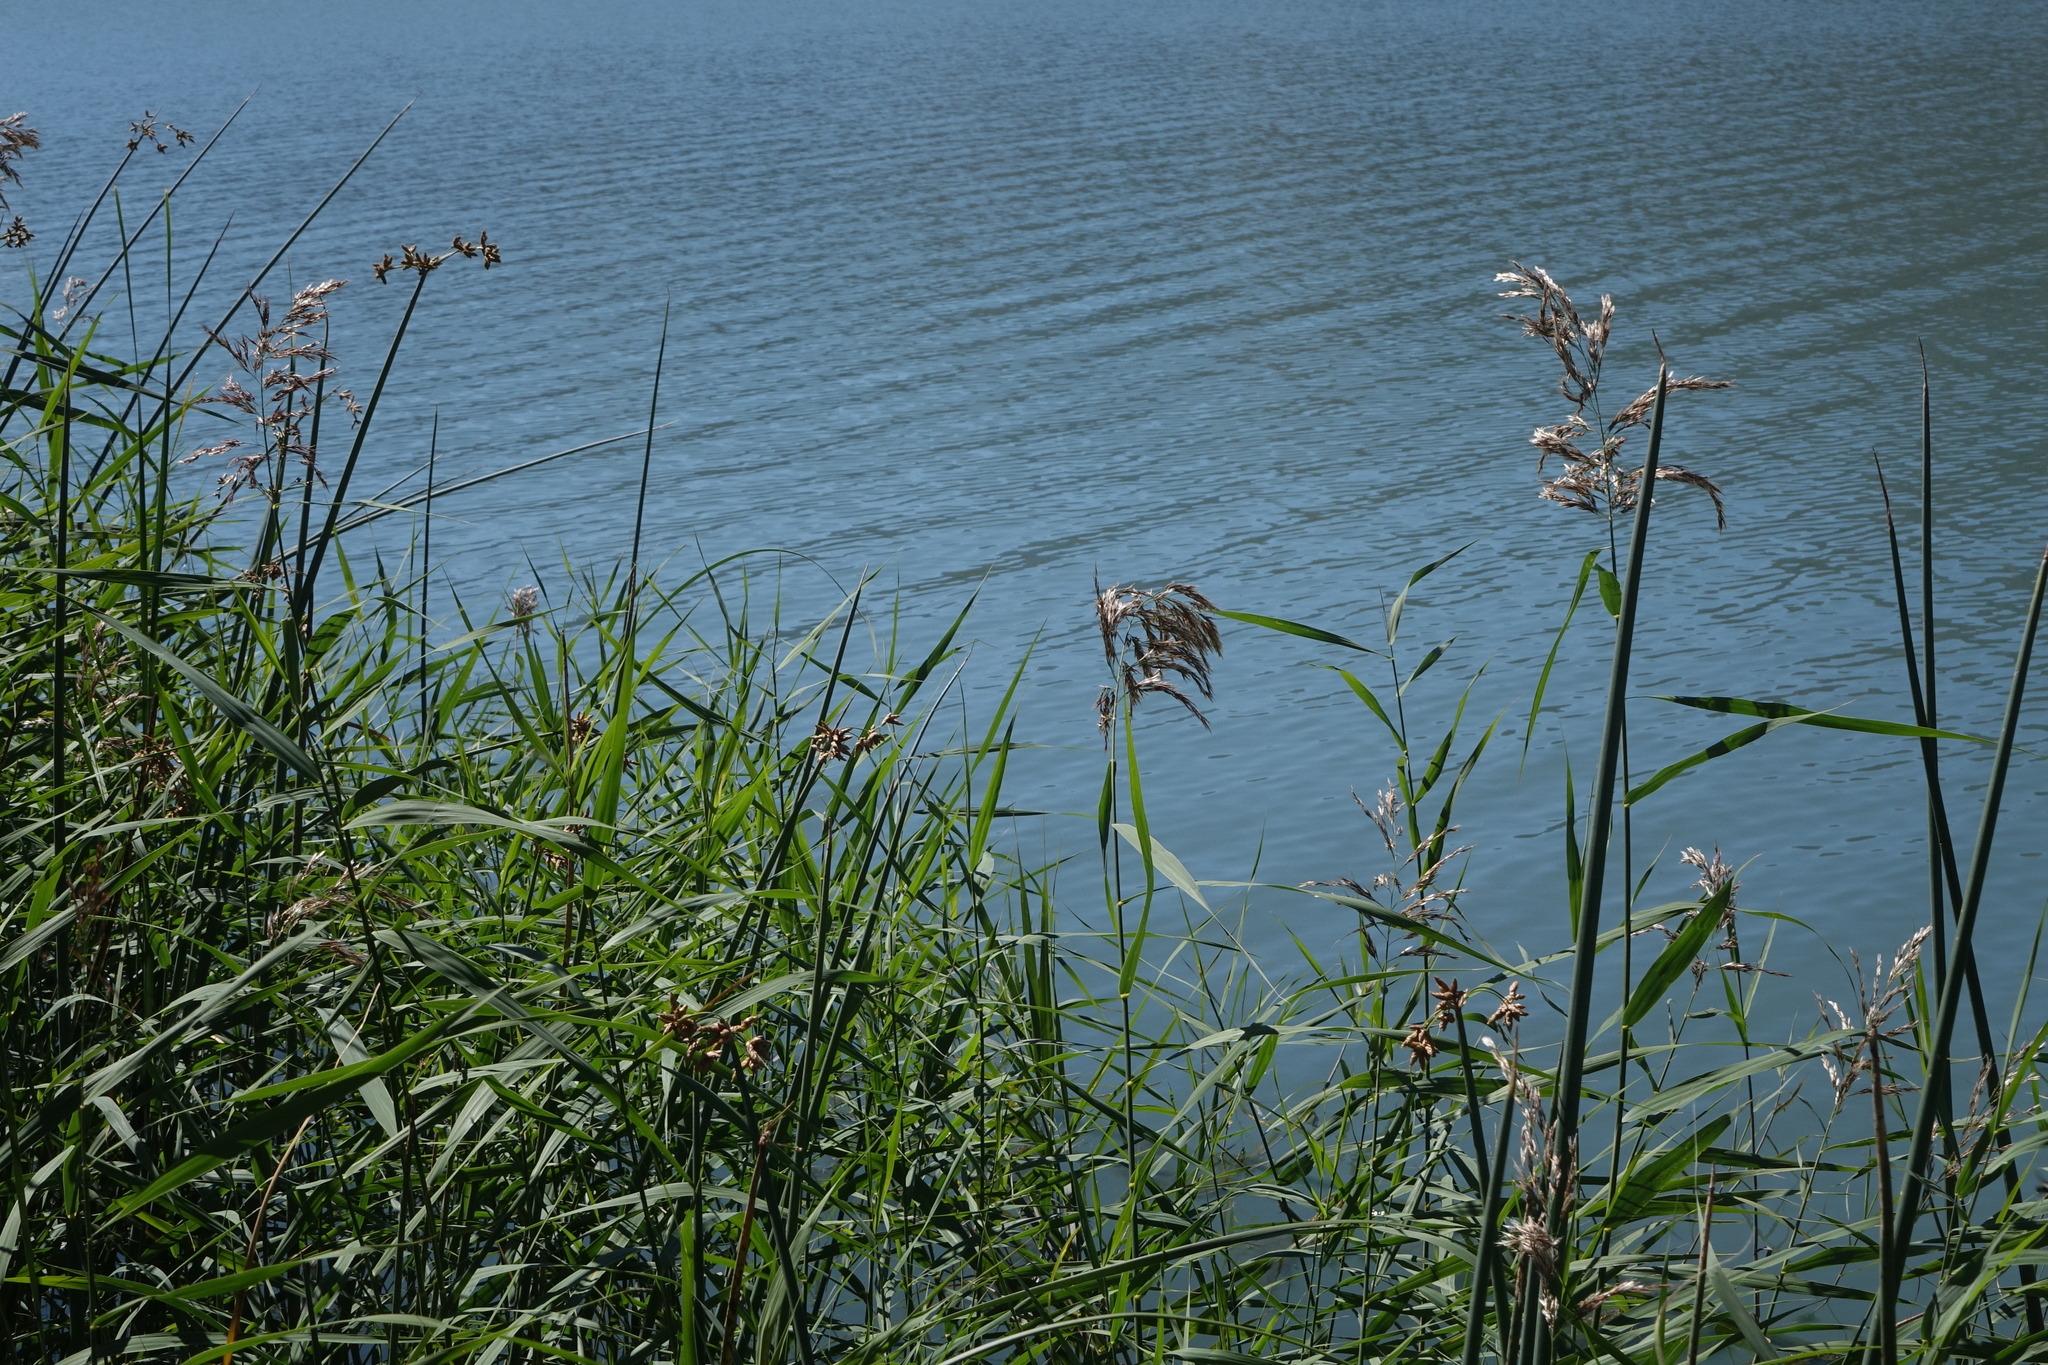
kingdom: Plantae
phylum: Tracheophyta
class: Liliopsida
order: Poales
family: Poaceae
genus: Phragmites
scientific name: Phragmites australis
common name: Common reed
